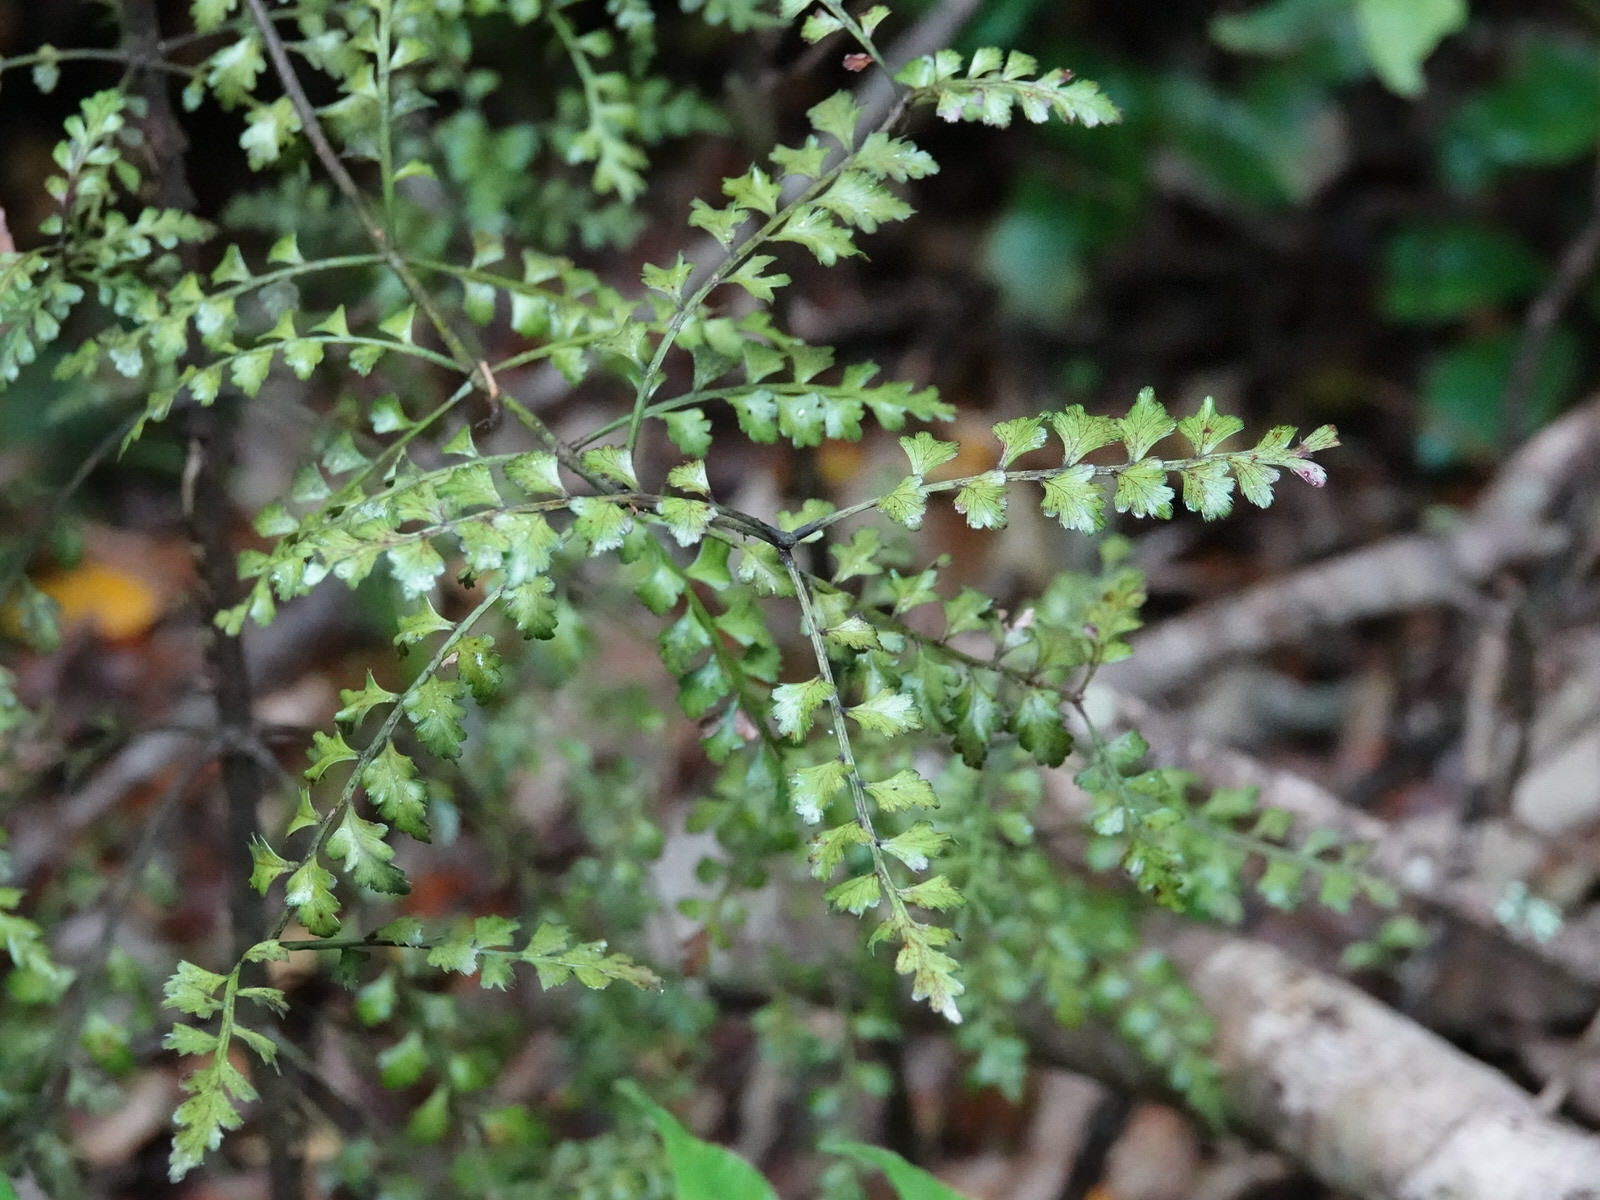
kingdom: Plantae
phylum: Tracheophyta
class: Pinopsida
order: Pinales
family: Phyllocladaceae
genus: Phyllocladus
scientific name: Phyllocladus trichomanoides
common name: Celery pine
